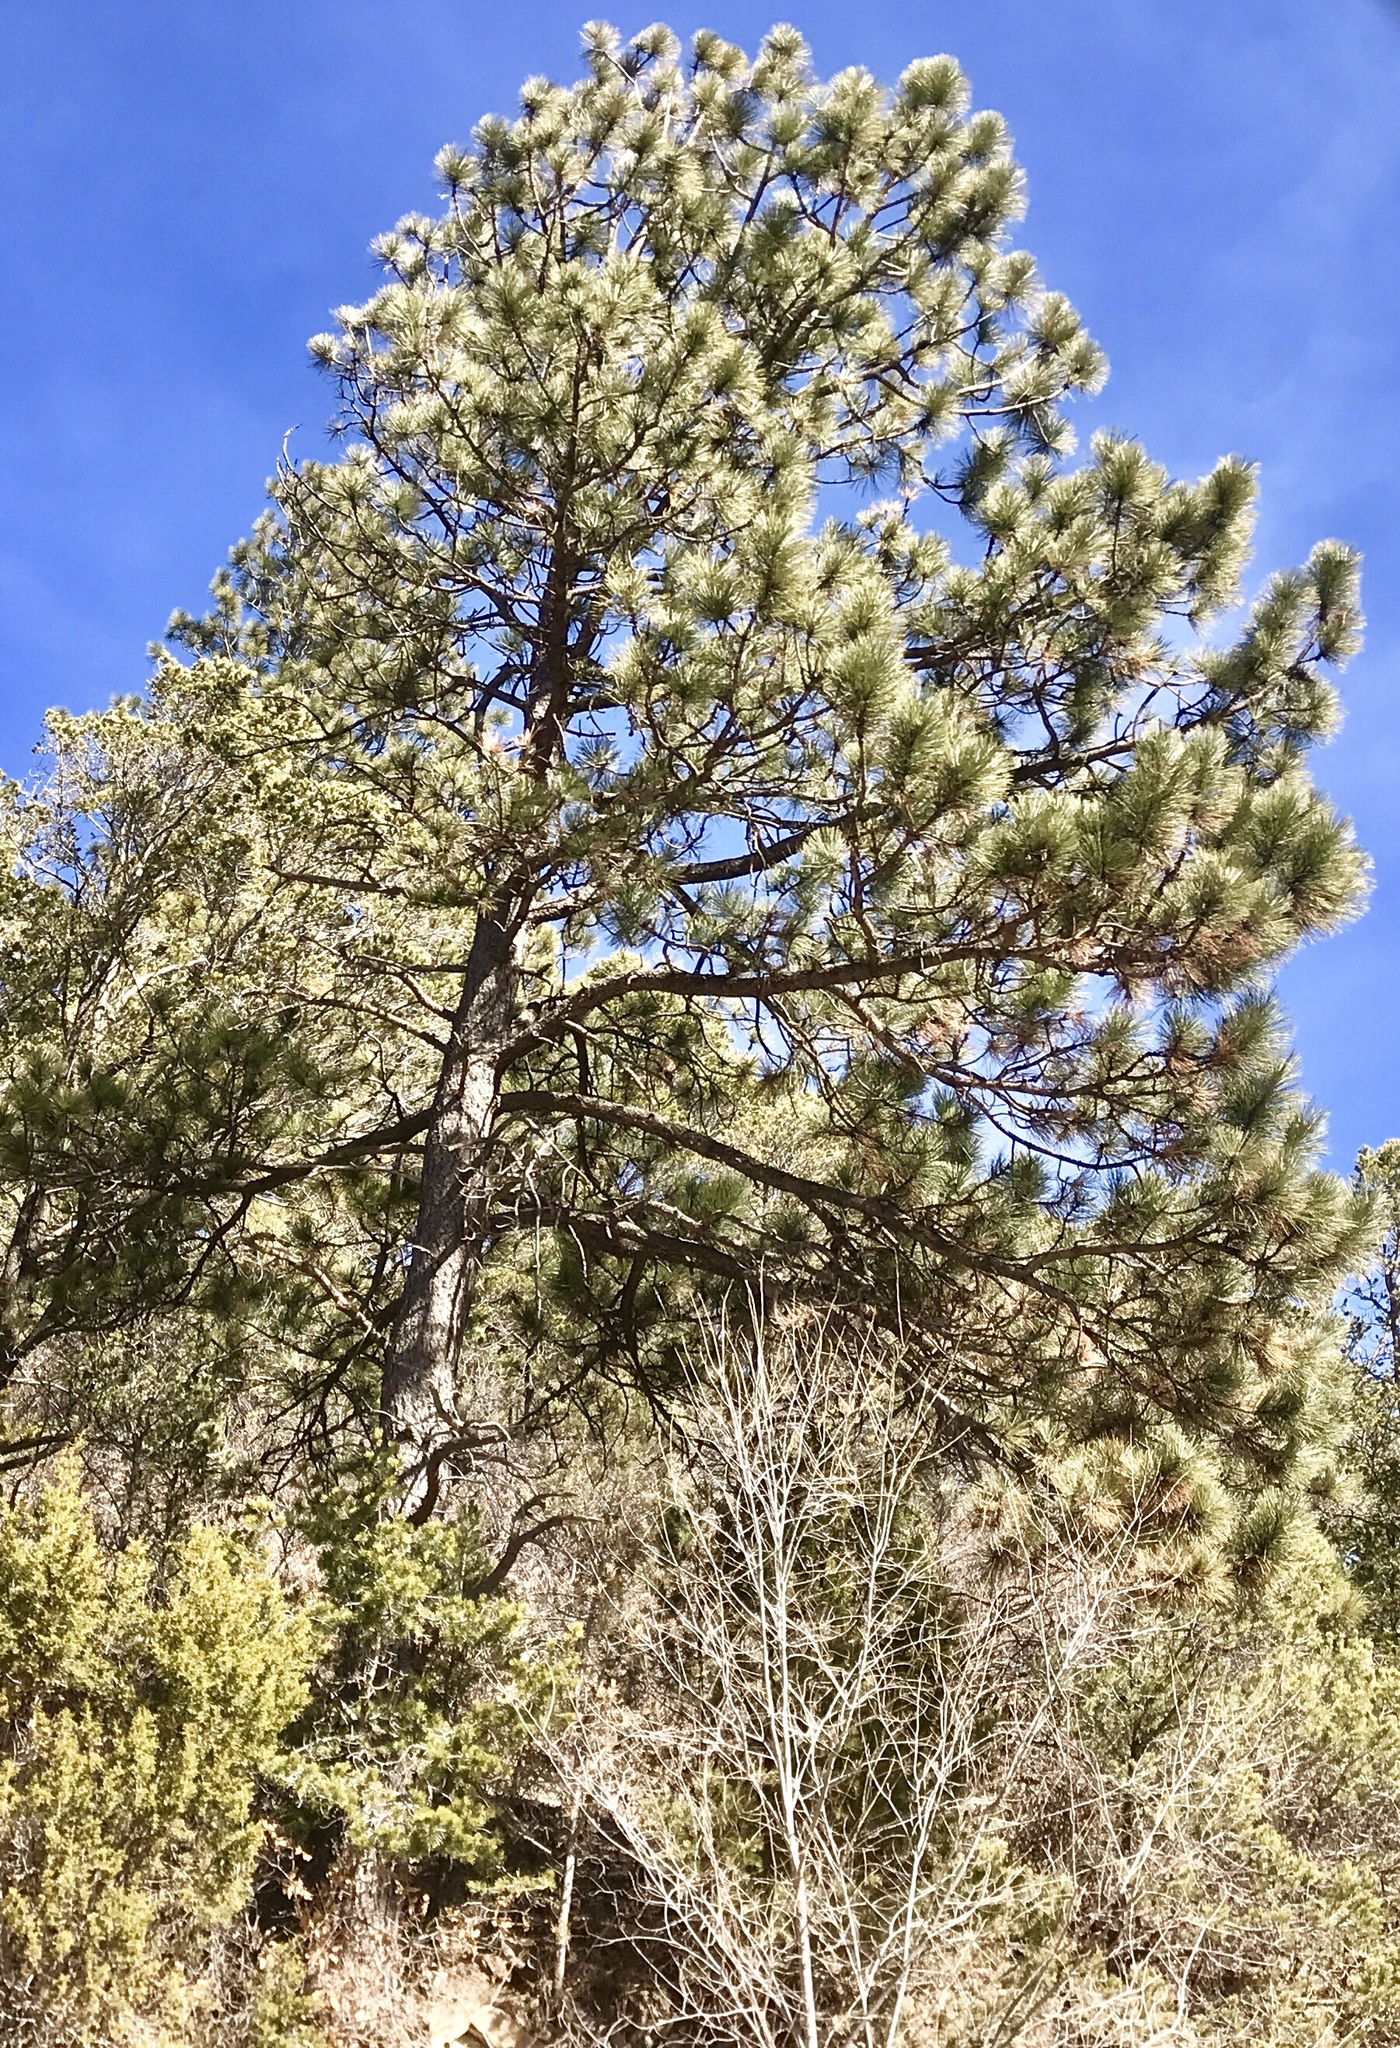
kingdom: Plantae
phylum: Tracheophyta
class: Pinopsida
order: Pinales
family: Pinaceae
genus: Pinus
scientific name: Pinus ponderosa
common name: Western yellow-pine
